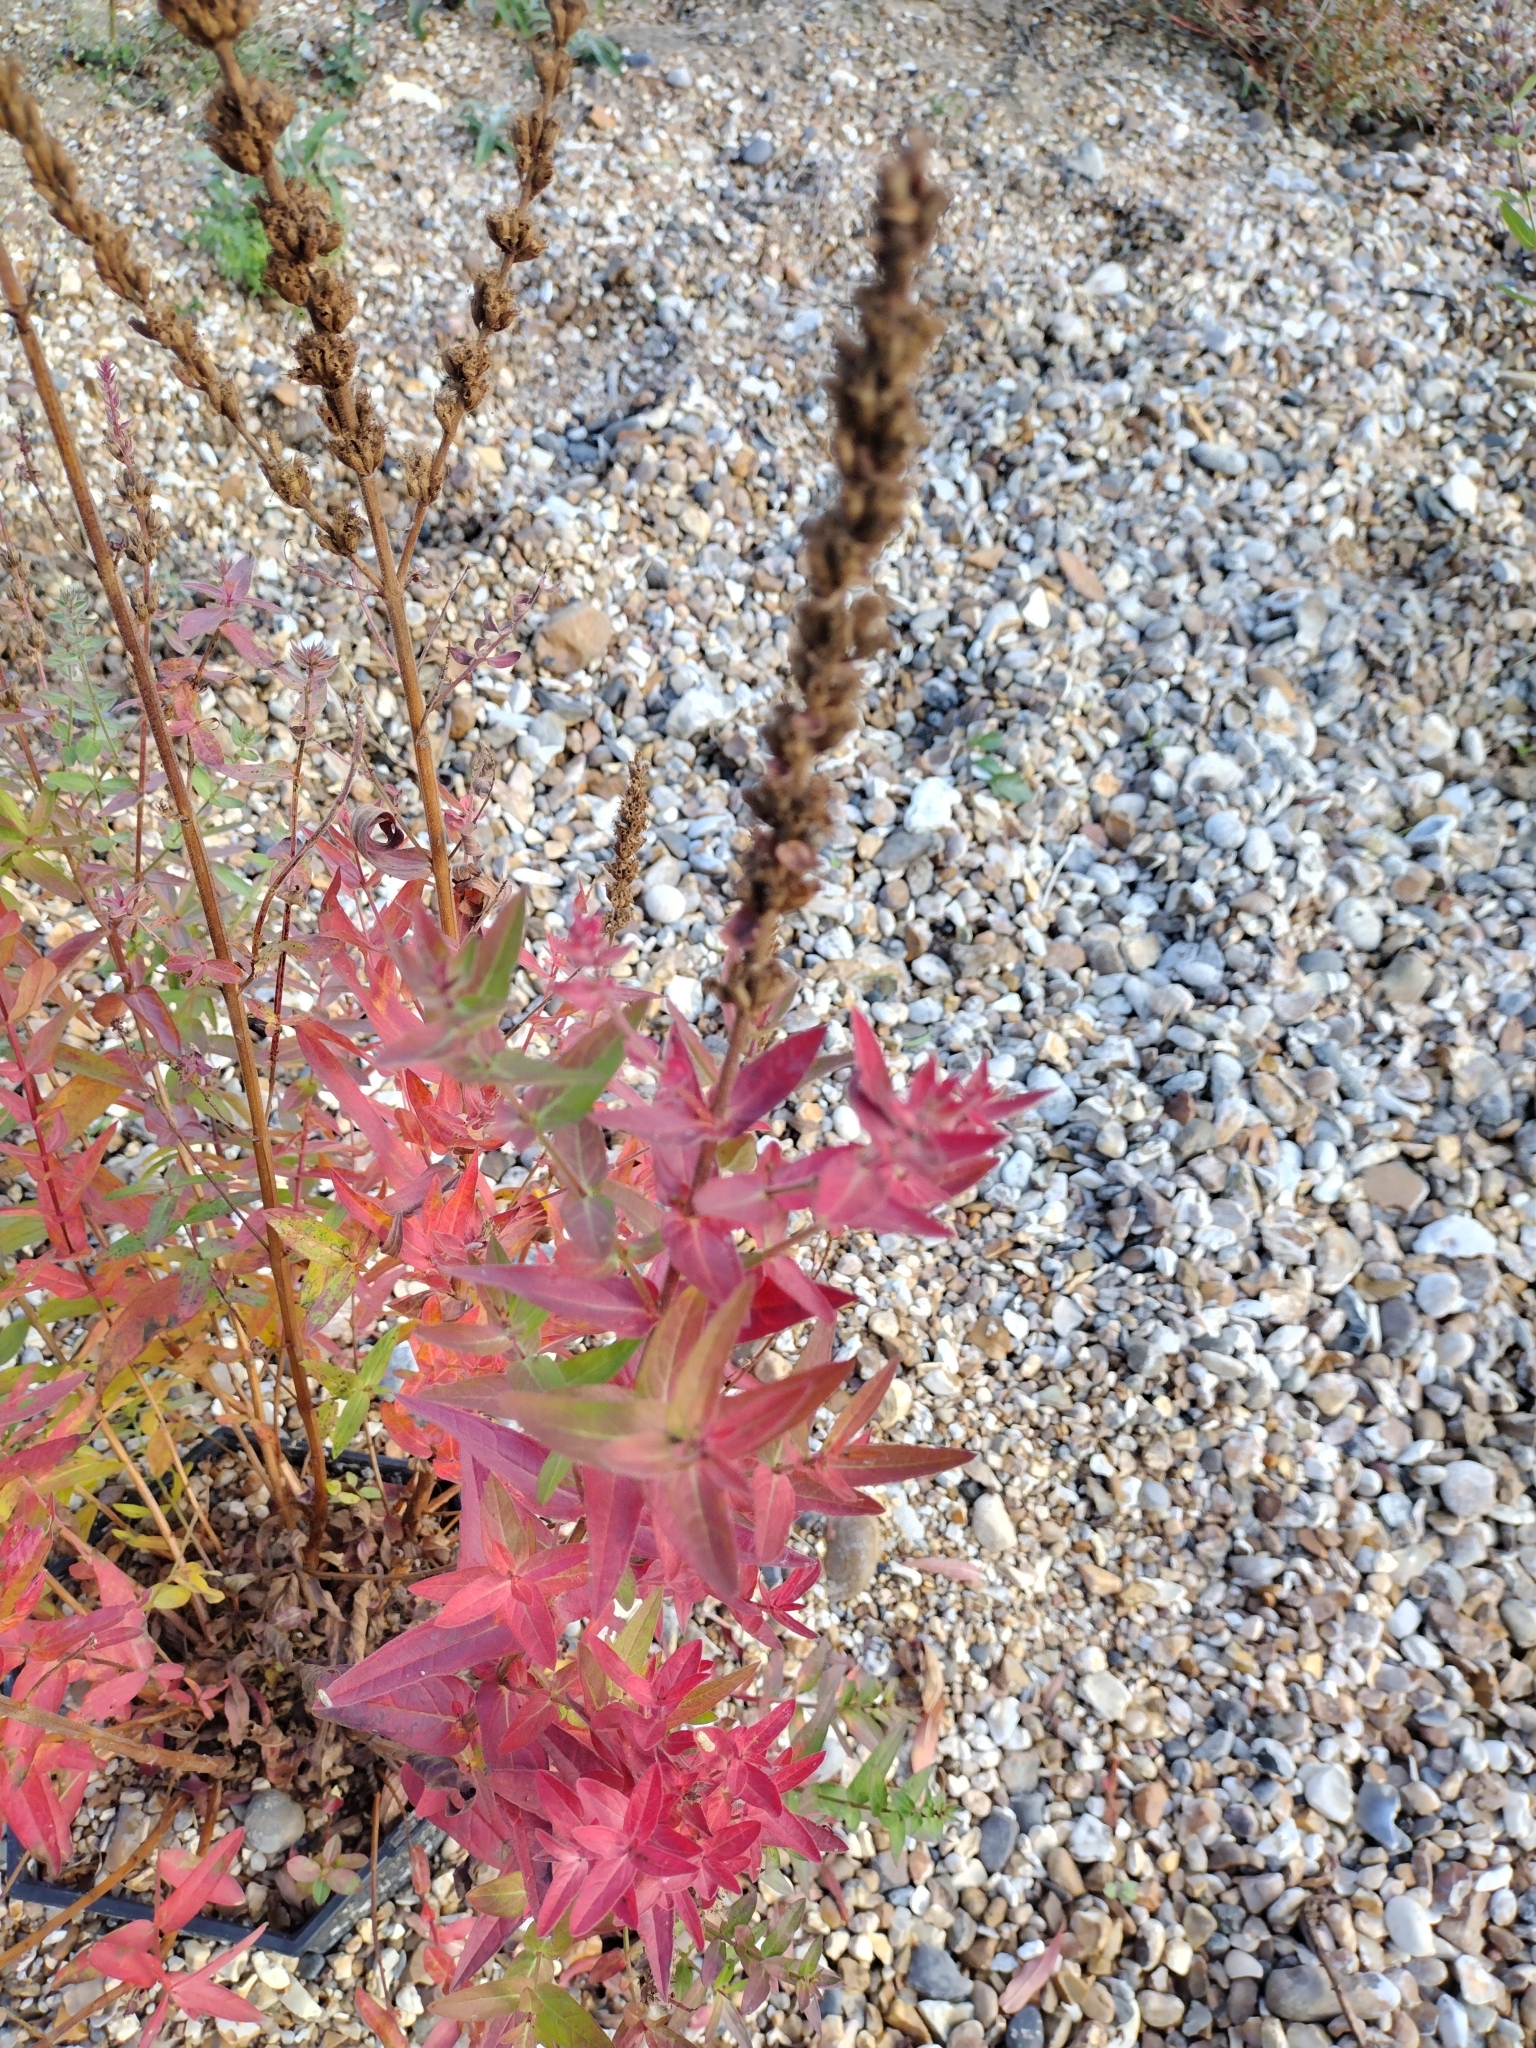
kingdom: Plantae
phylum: Tracheophyta
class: Magnoliopsida
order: Myrtales
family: Lythraceae
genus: Lythrum
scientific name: Lythrum salicaria
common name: Purple loosestrife
